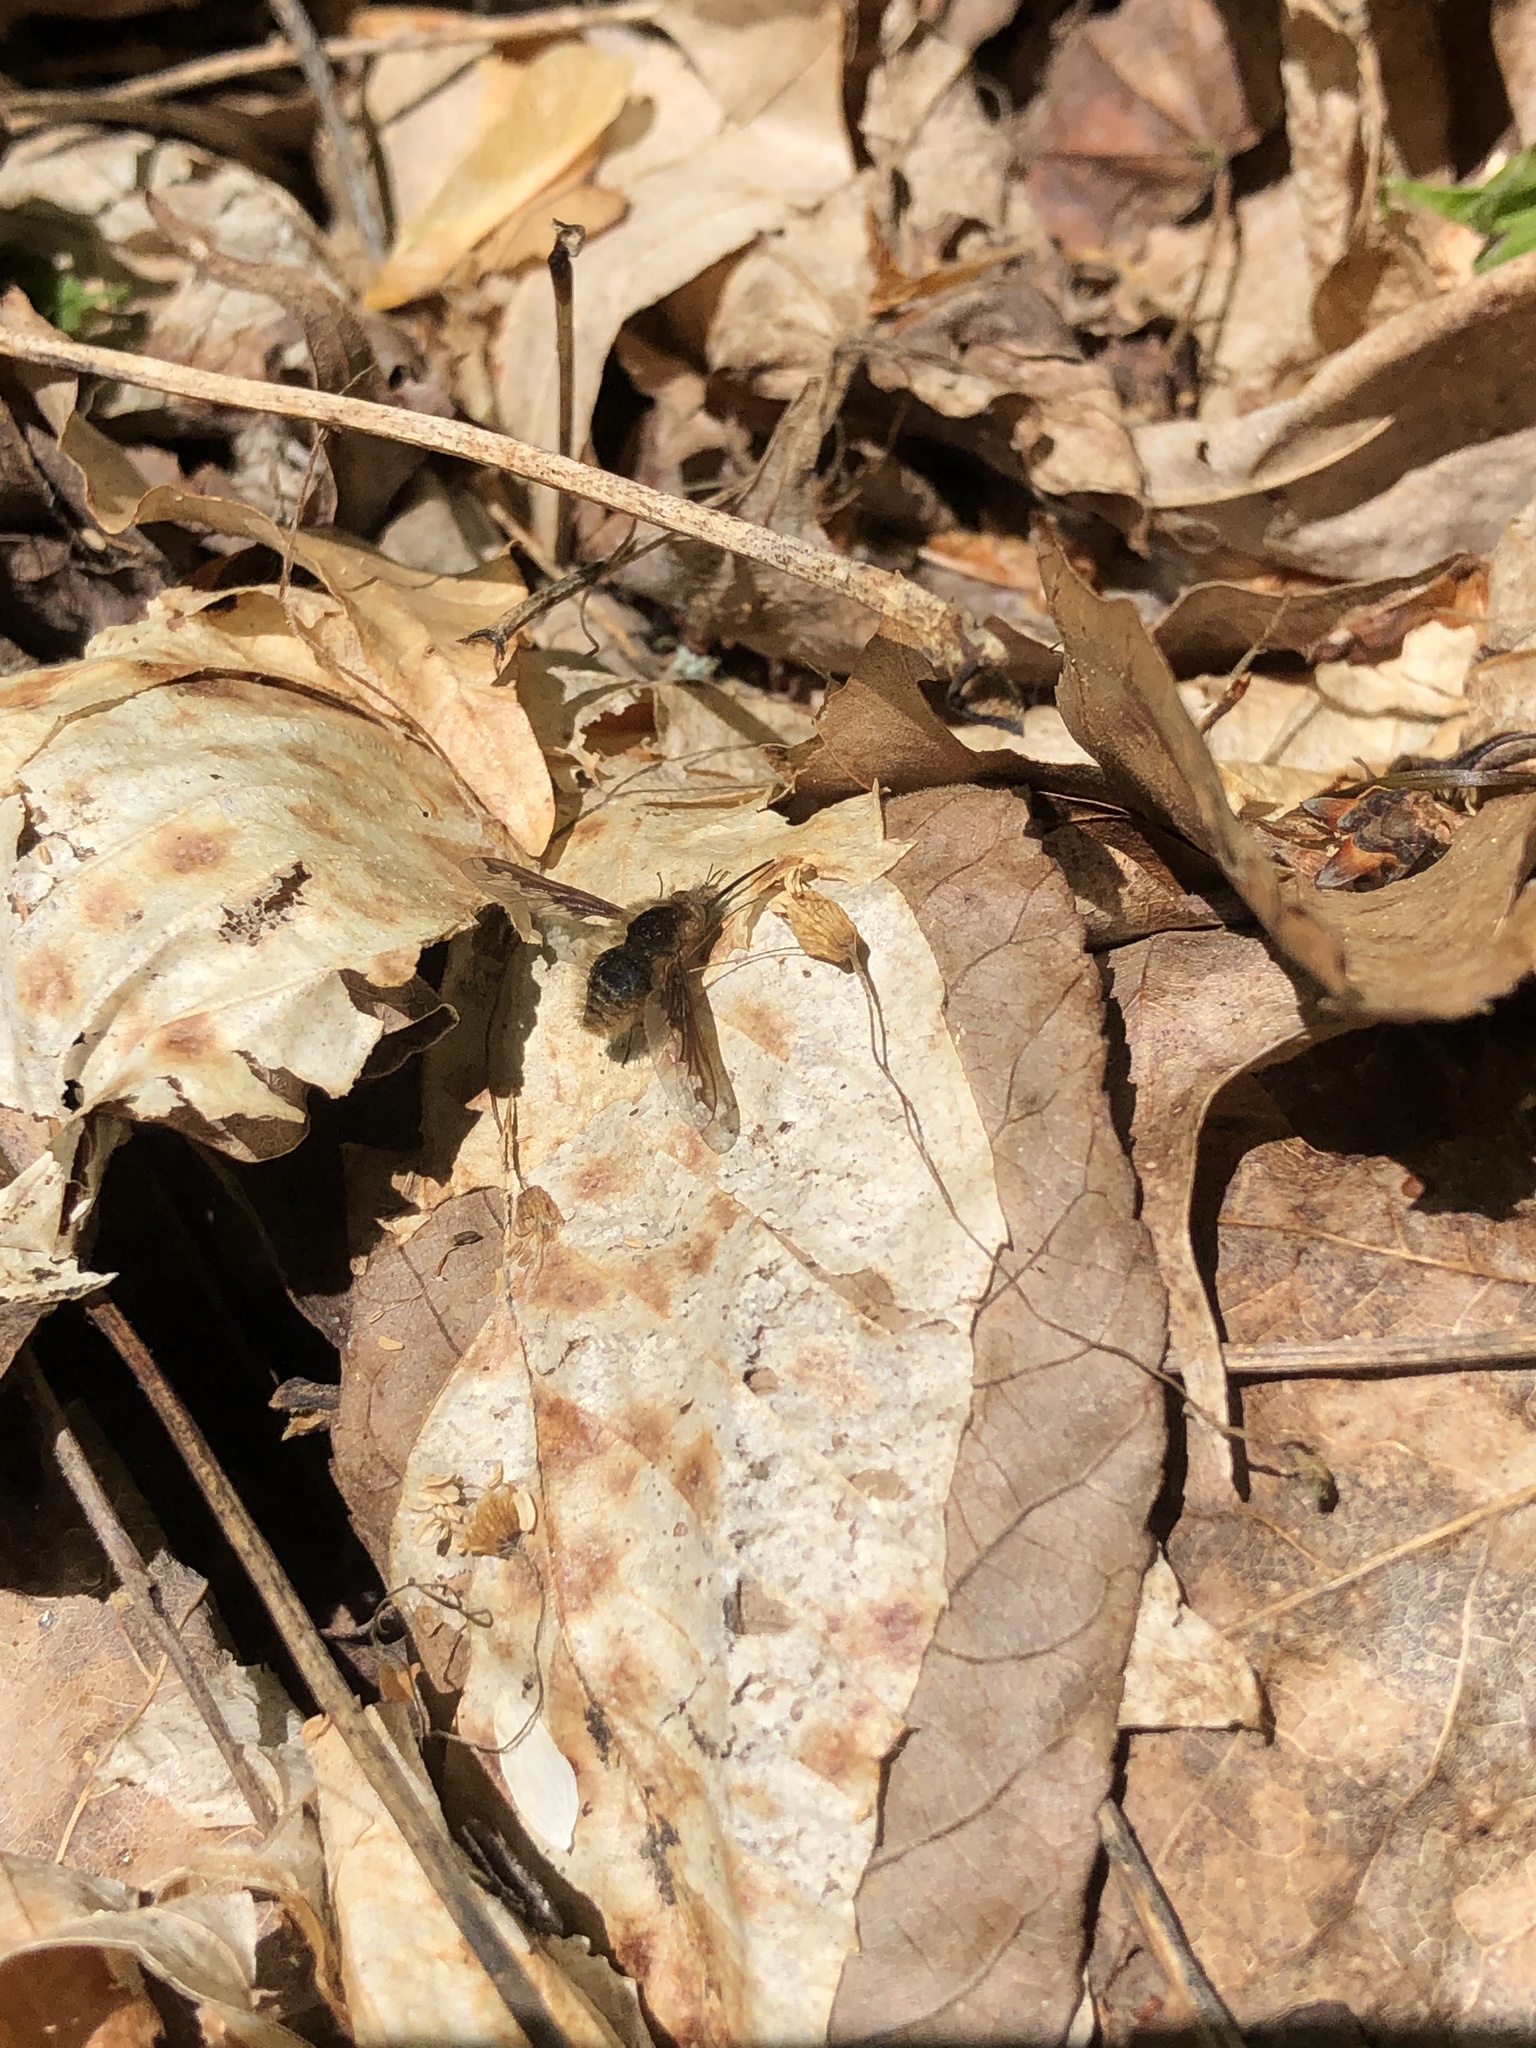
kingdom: Animalia
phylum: Arthropoda
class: Insecta
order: Diptera
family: Bombyliidae
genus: Bombylius
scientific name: Bombylius major
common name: Bee fly
